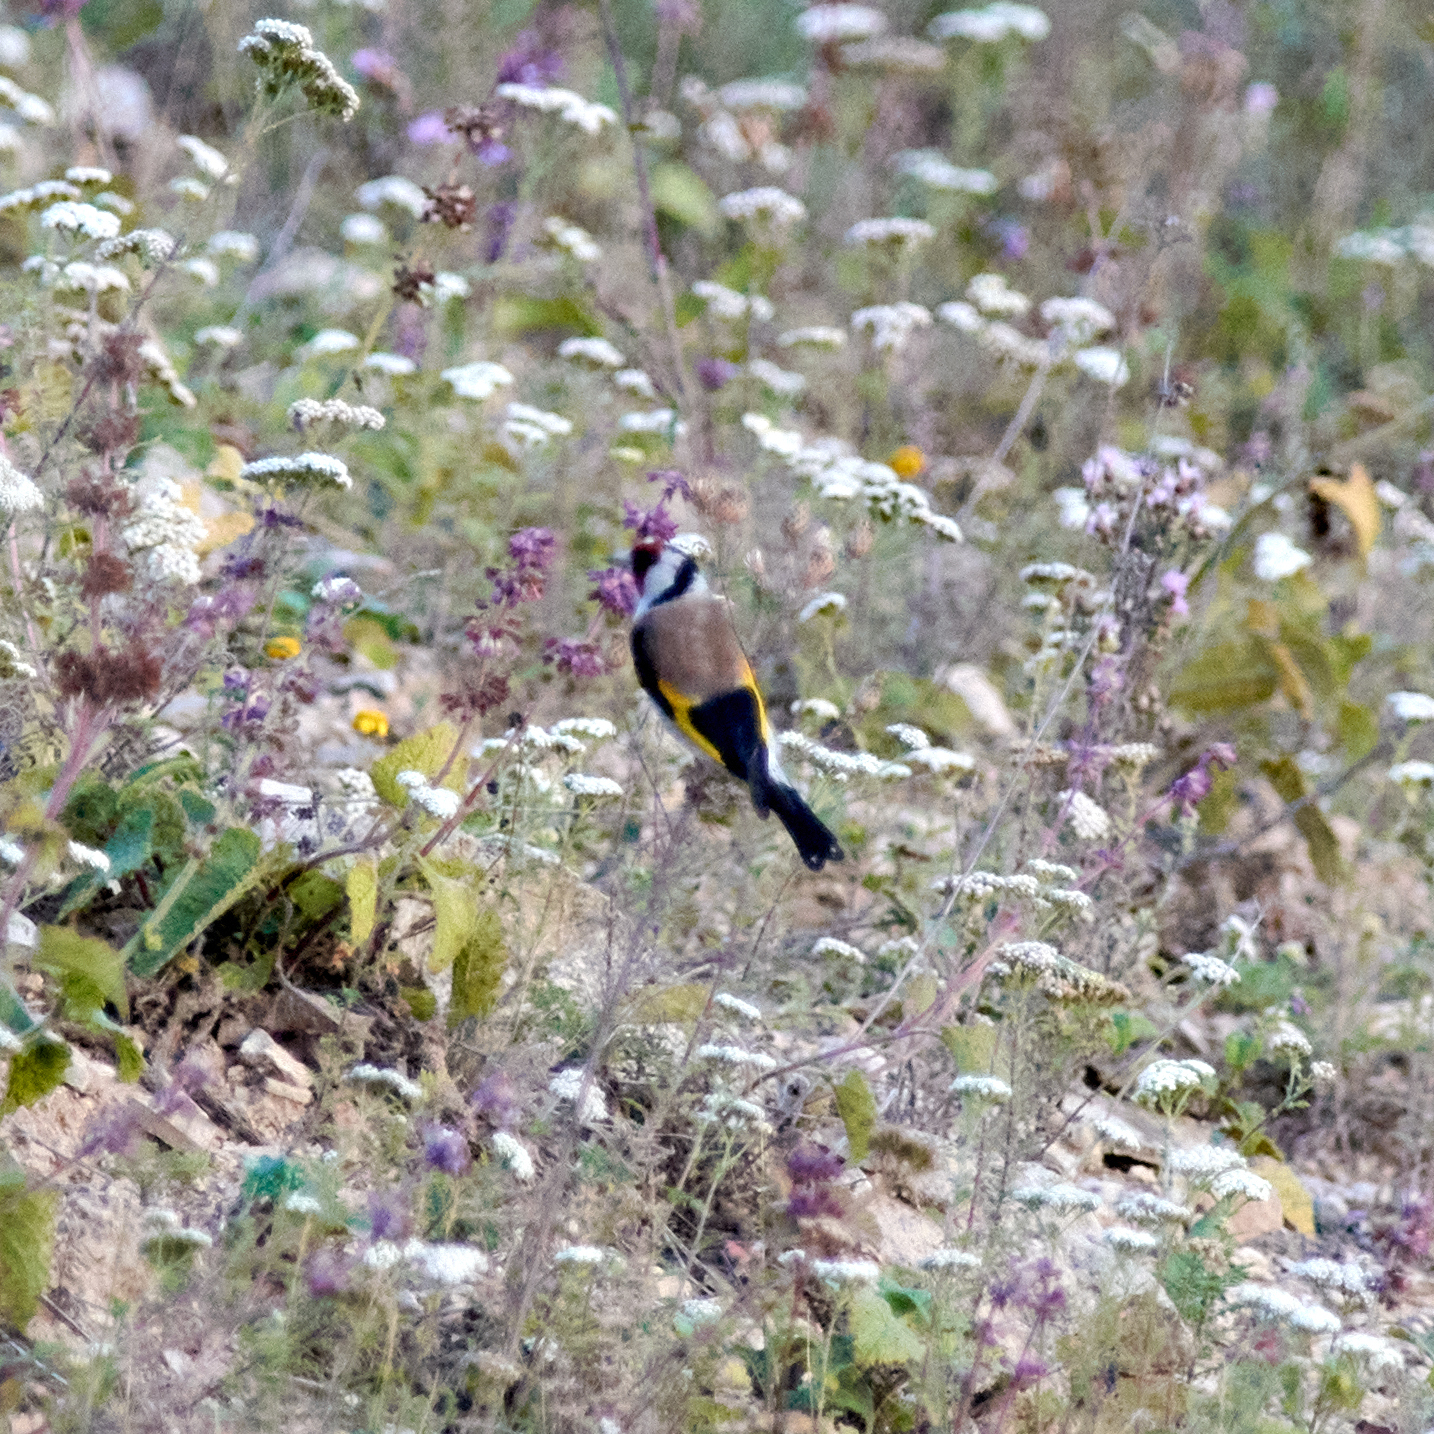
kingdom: Animalia
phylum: Chordata
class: Aves
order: Passeriformes
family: Fringillidae
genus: Carduelis
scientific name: Carduelis carduelis
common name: European goldfinch
